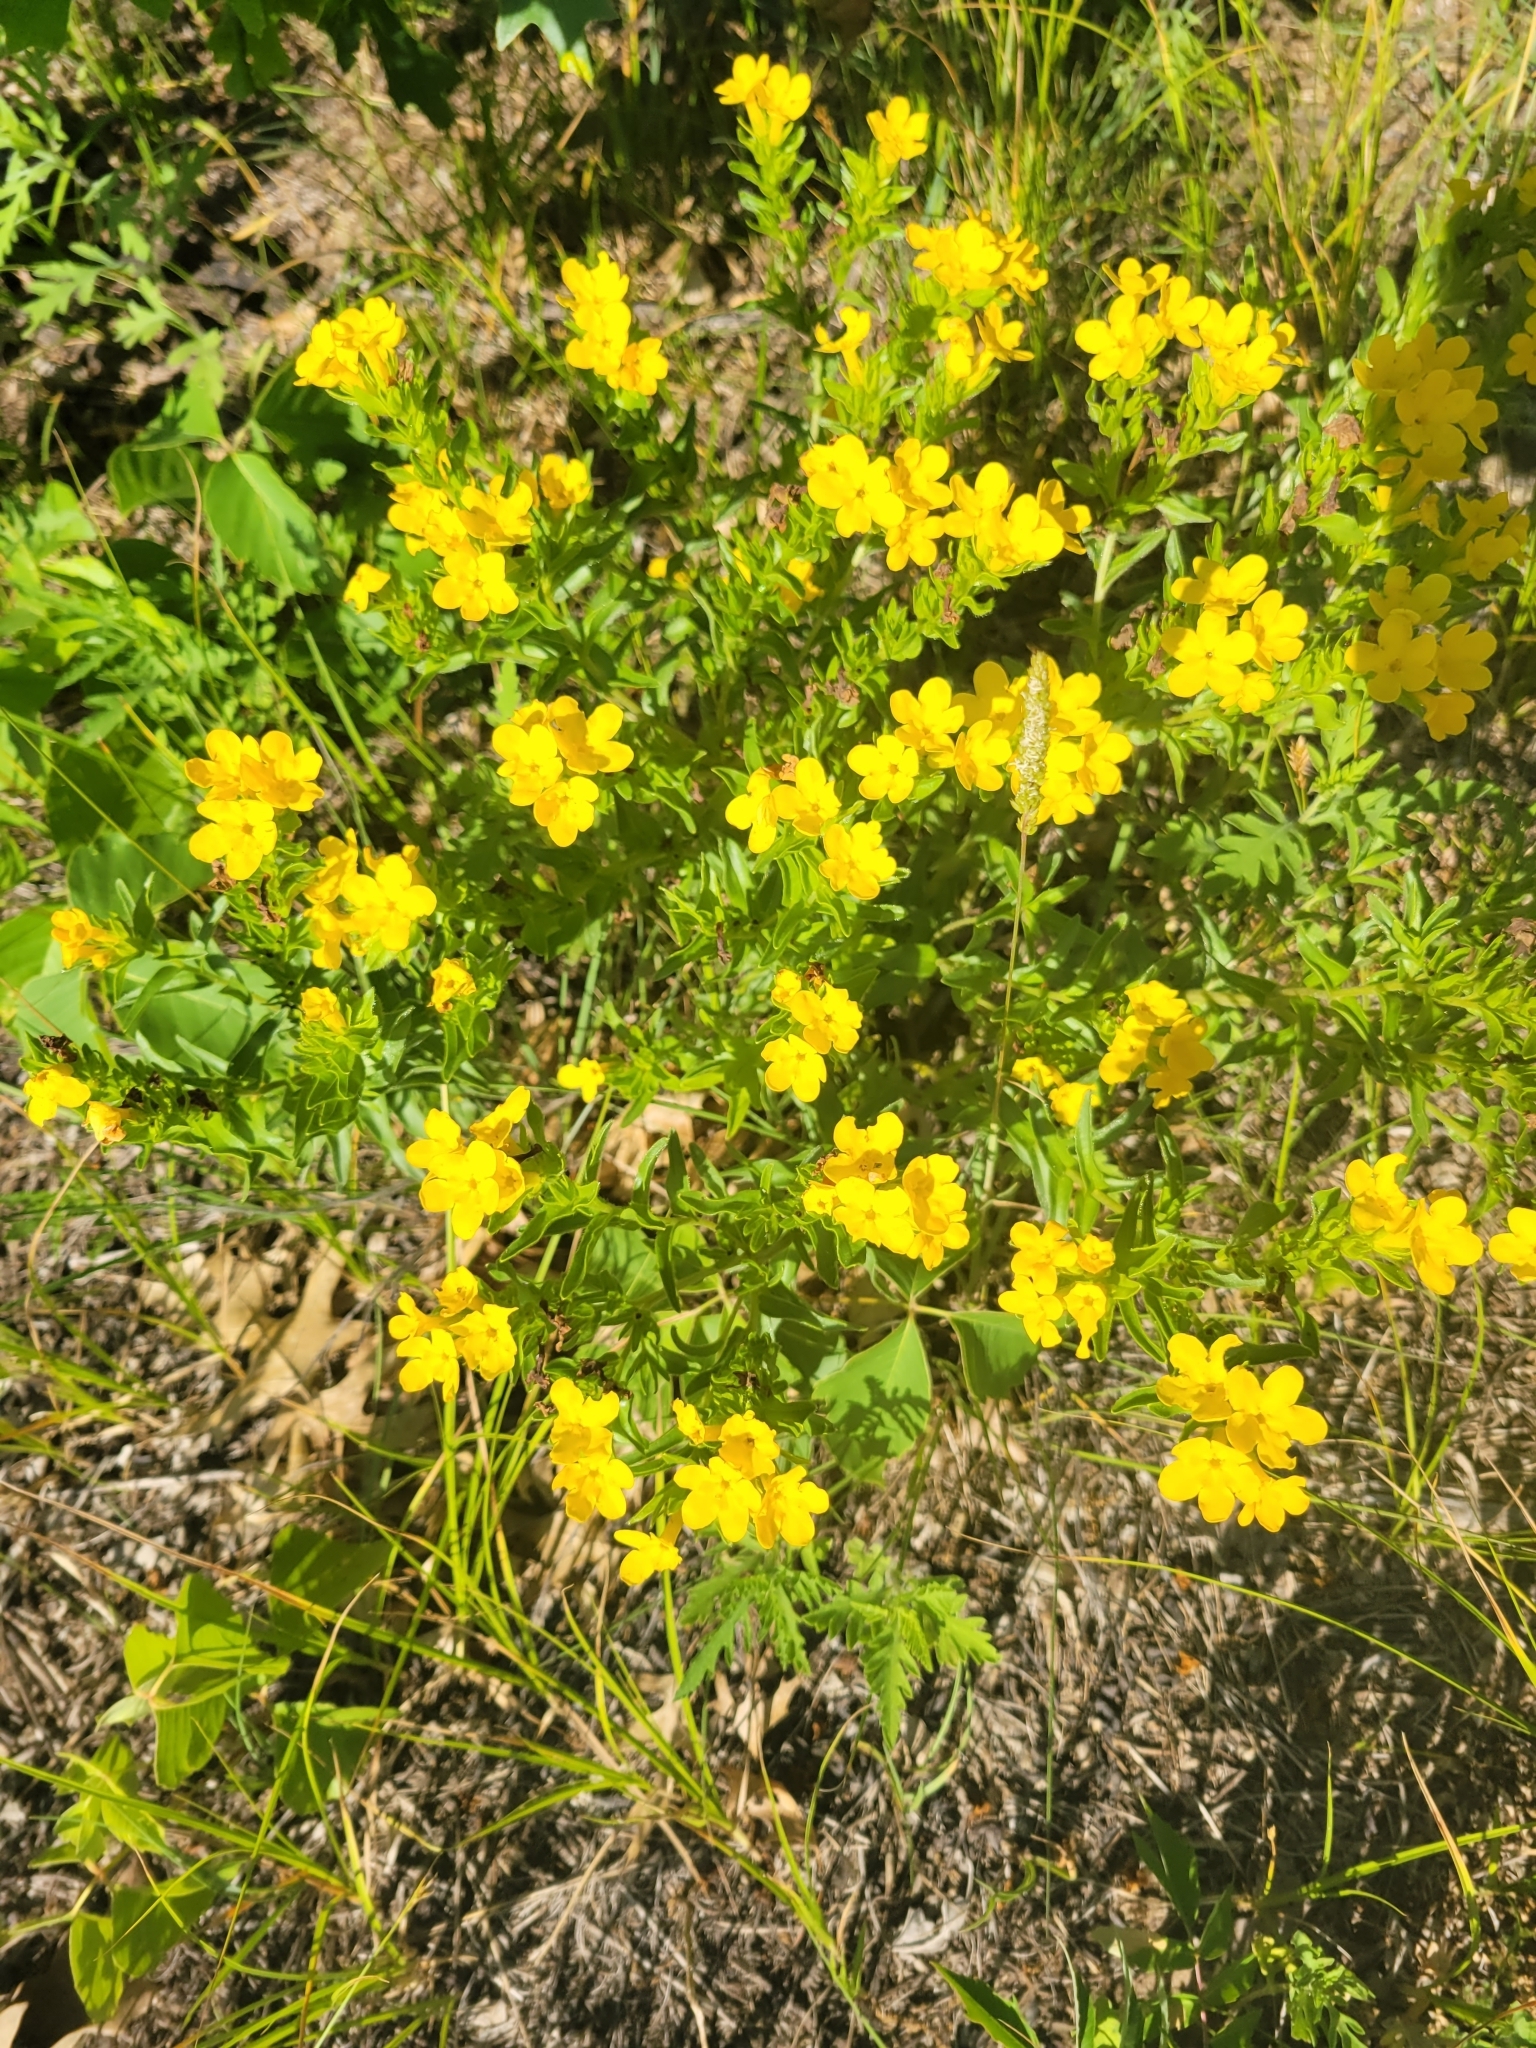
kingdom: Plantae
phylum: Tracheophyta
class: Magnoliopsida
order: Boraginales
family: Boraginaceae
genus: Lithospermum
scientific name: Lithospermum caroliniense
